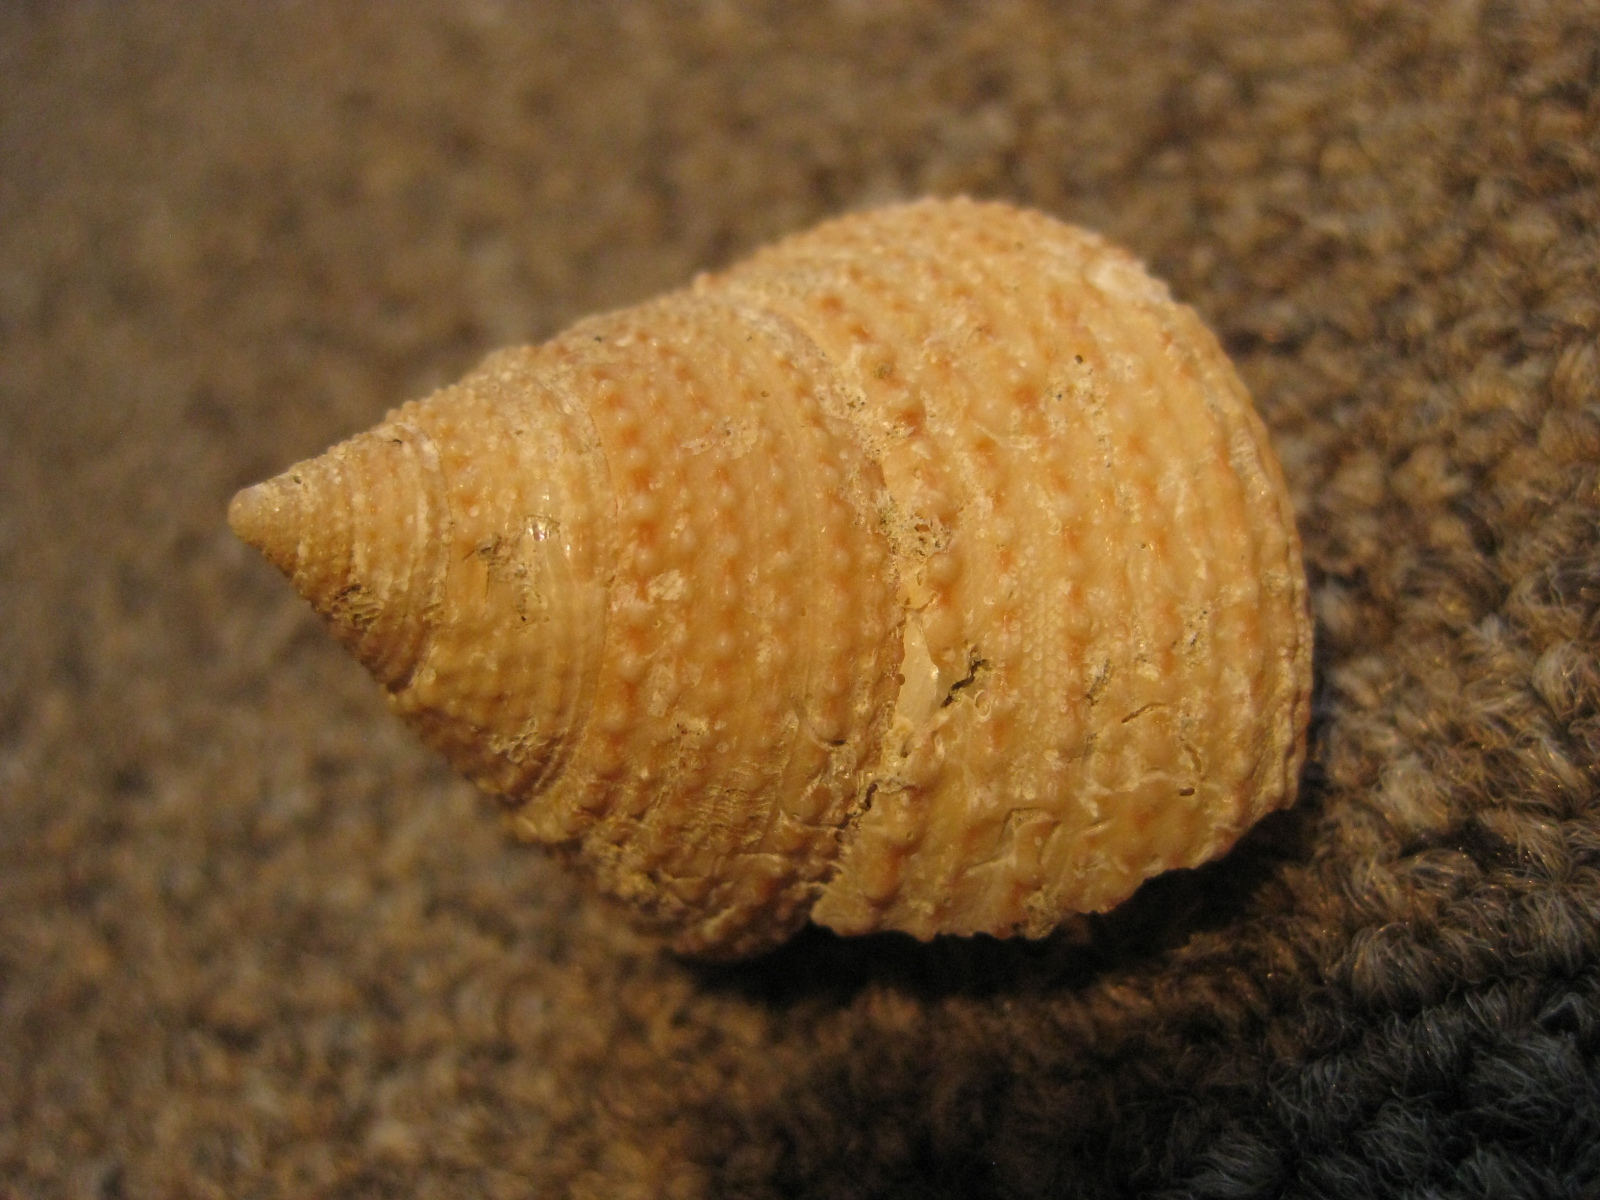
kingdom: Animalia
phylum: Mollusca
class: Gastropoda
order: Trochida
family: Calliostomatidae
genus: Maurea
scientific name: Maurea blacki
